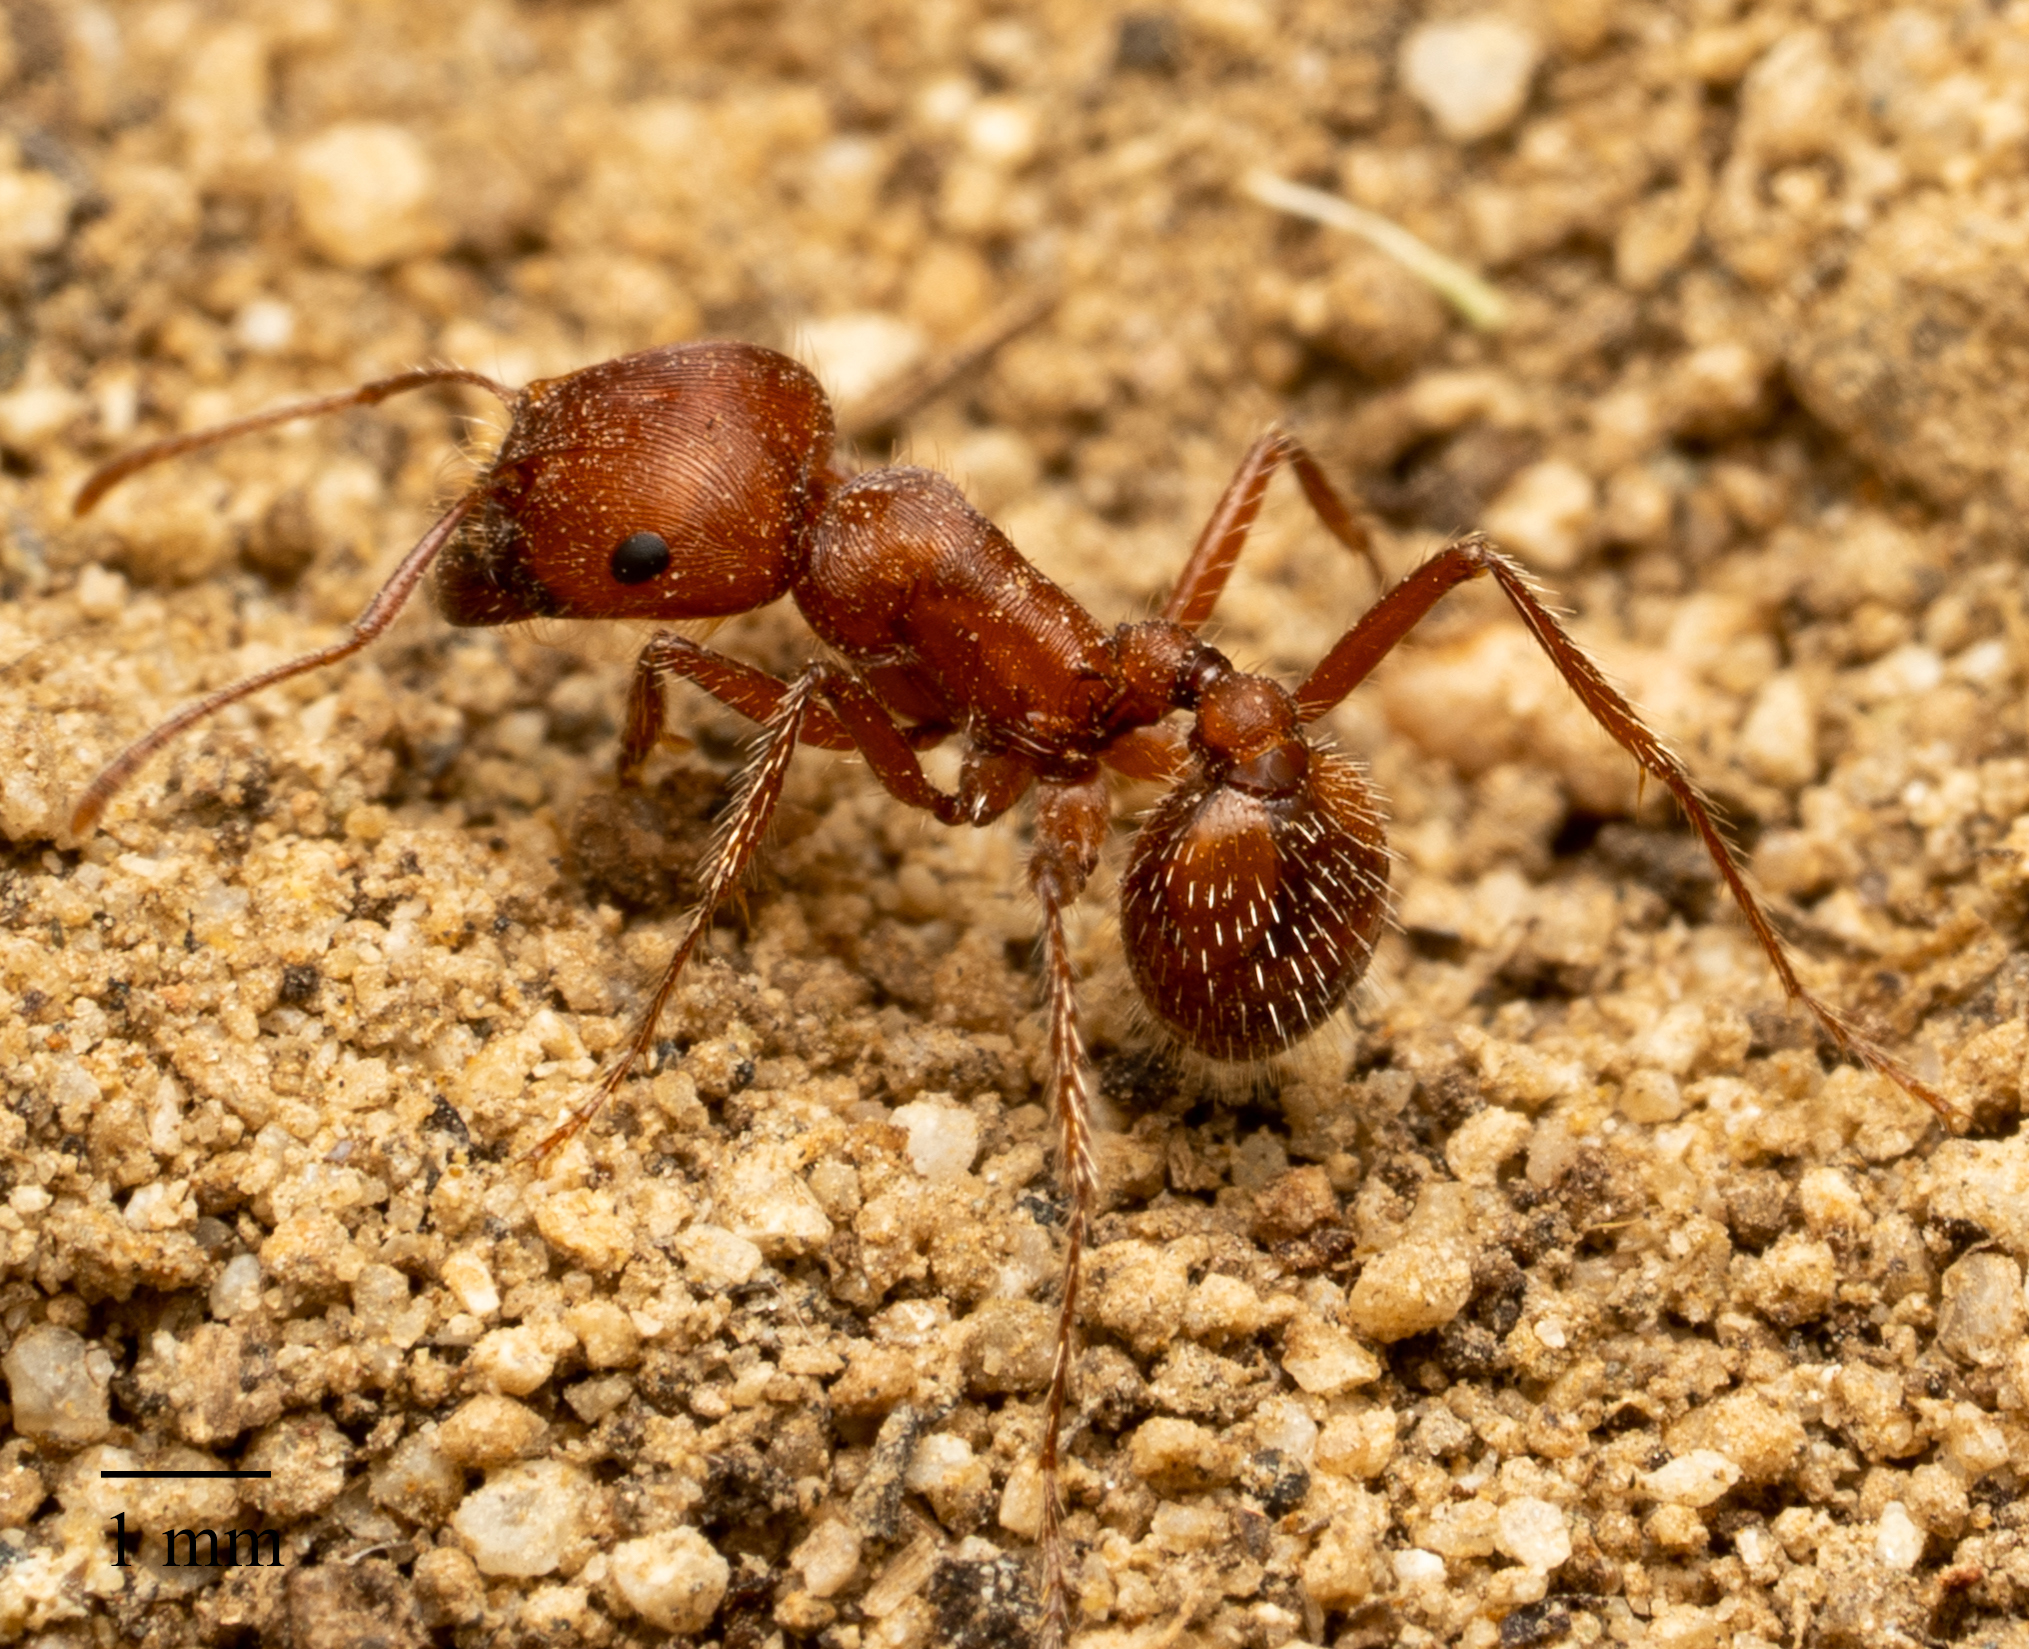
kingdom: Animalia
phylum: Arthropoda
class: Insecta
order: Hymenoptera
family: Formicidae
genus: Pogonomyrmex
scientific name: Pogonomyrmex subnitidus
